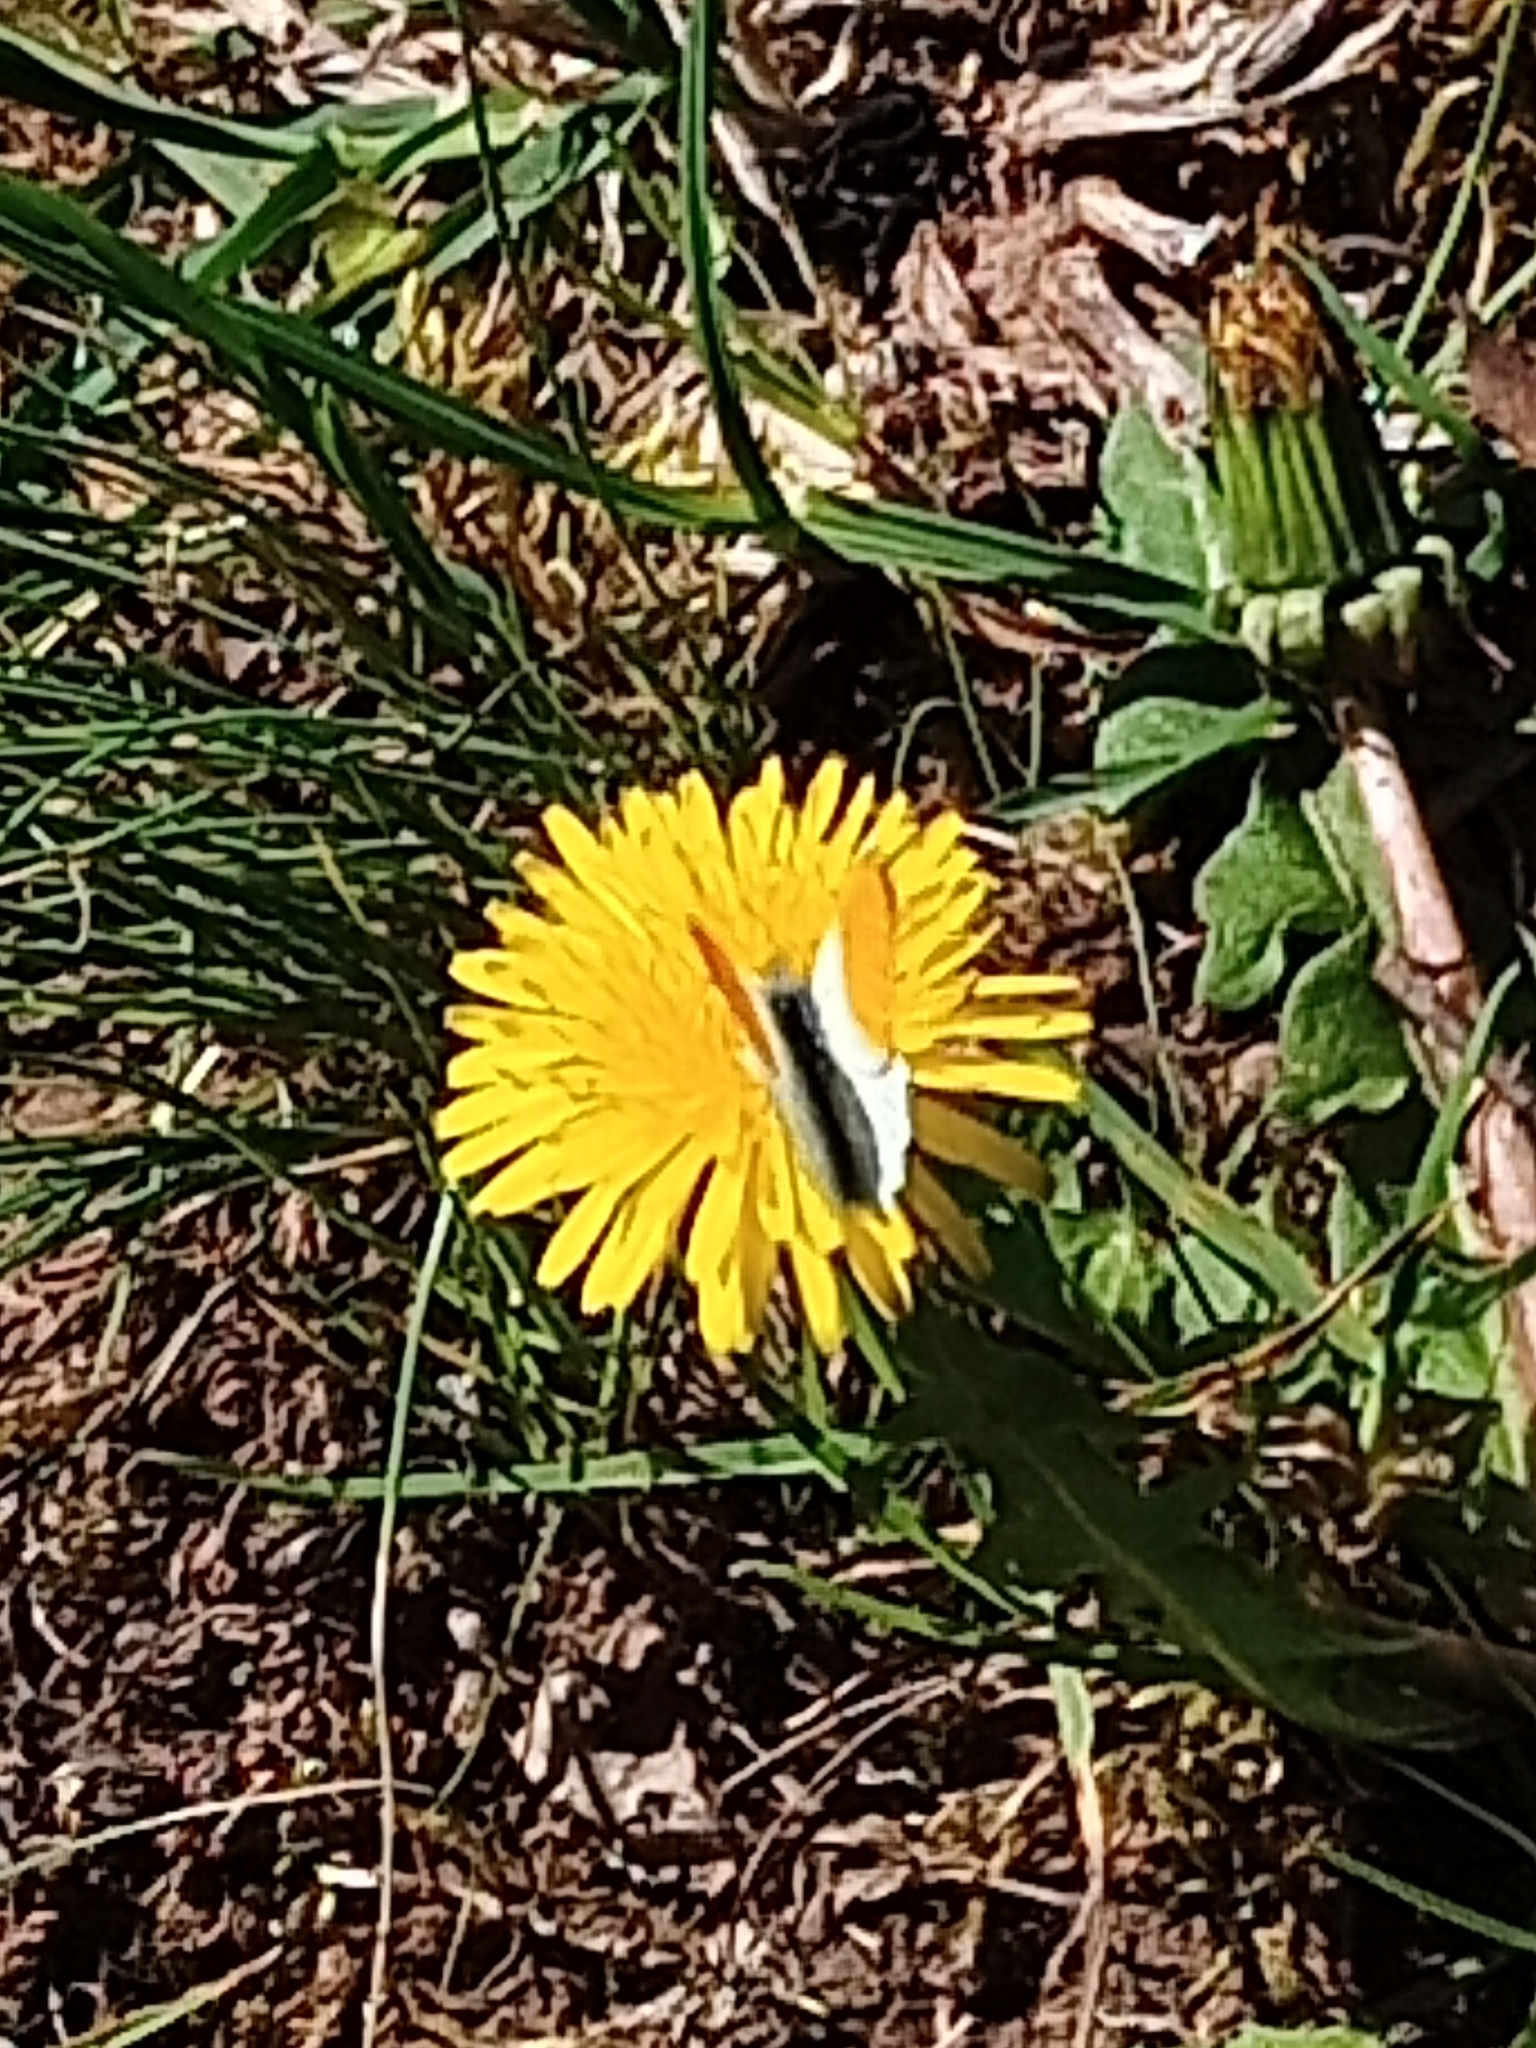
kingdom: Animalia
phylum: Arthropoda
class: Insecta
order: Lepidoptera
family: Pieridae
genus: Anthocharis
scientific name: Anthocharis cardamines
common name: Orange-tip
